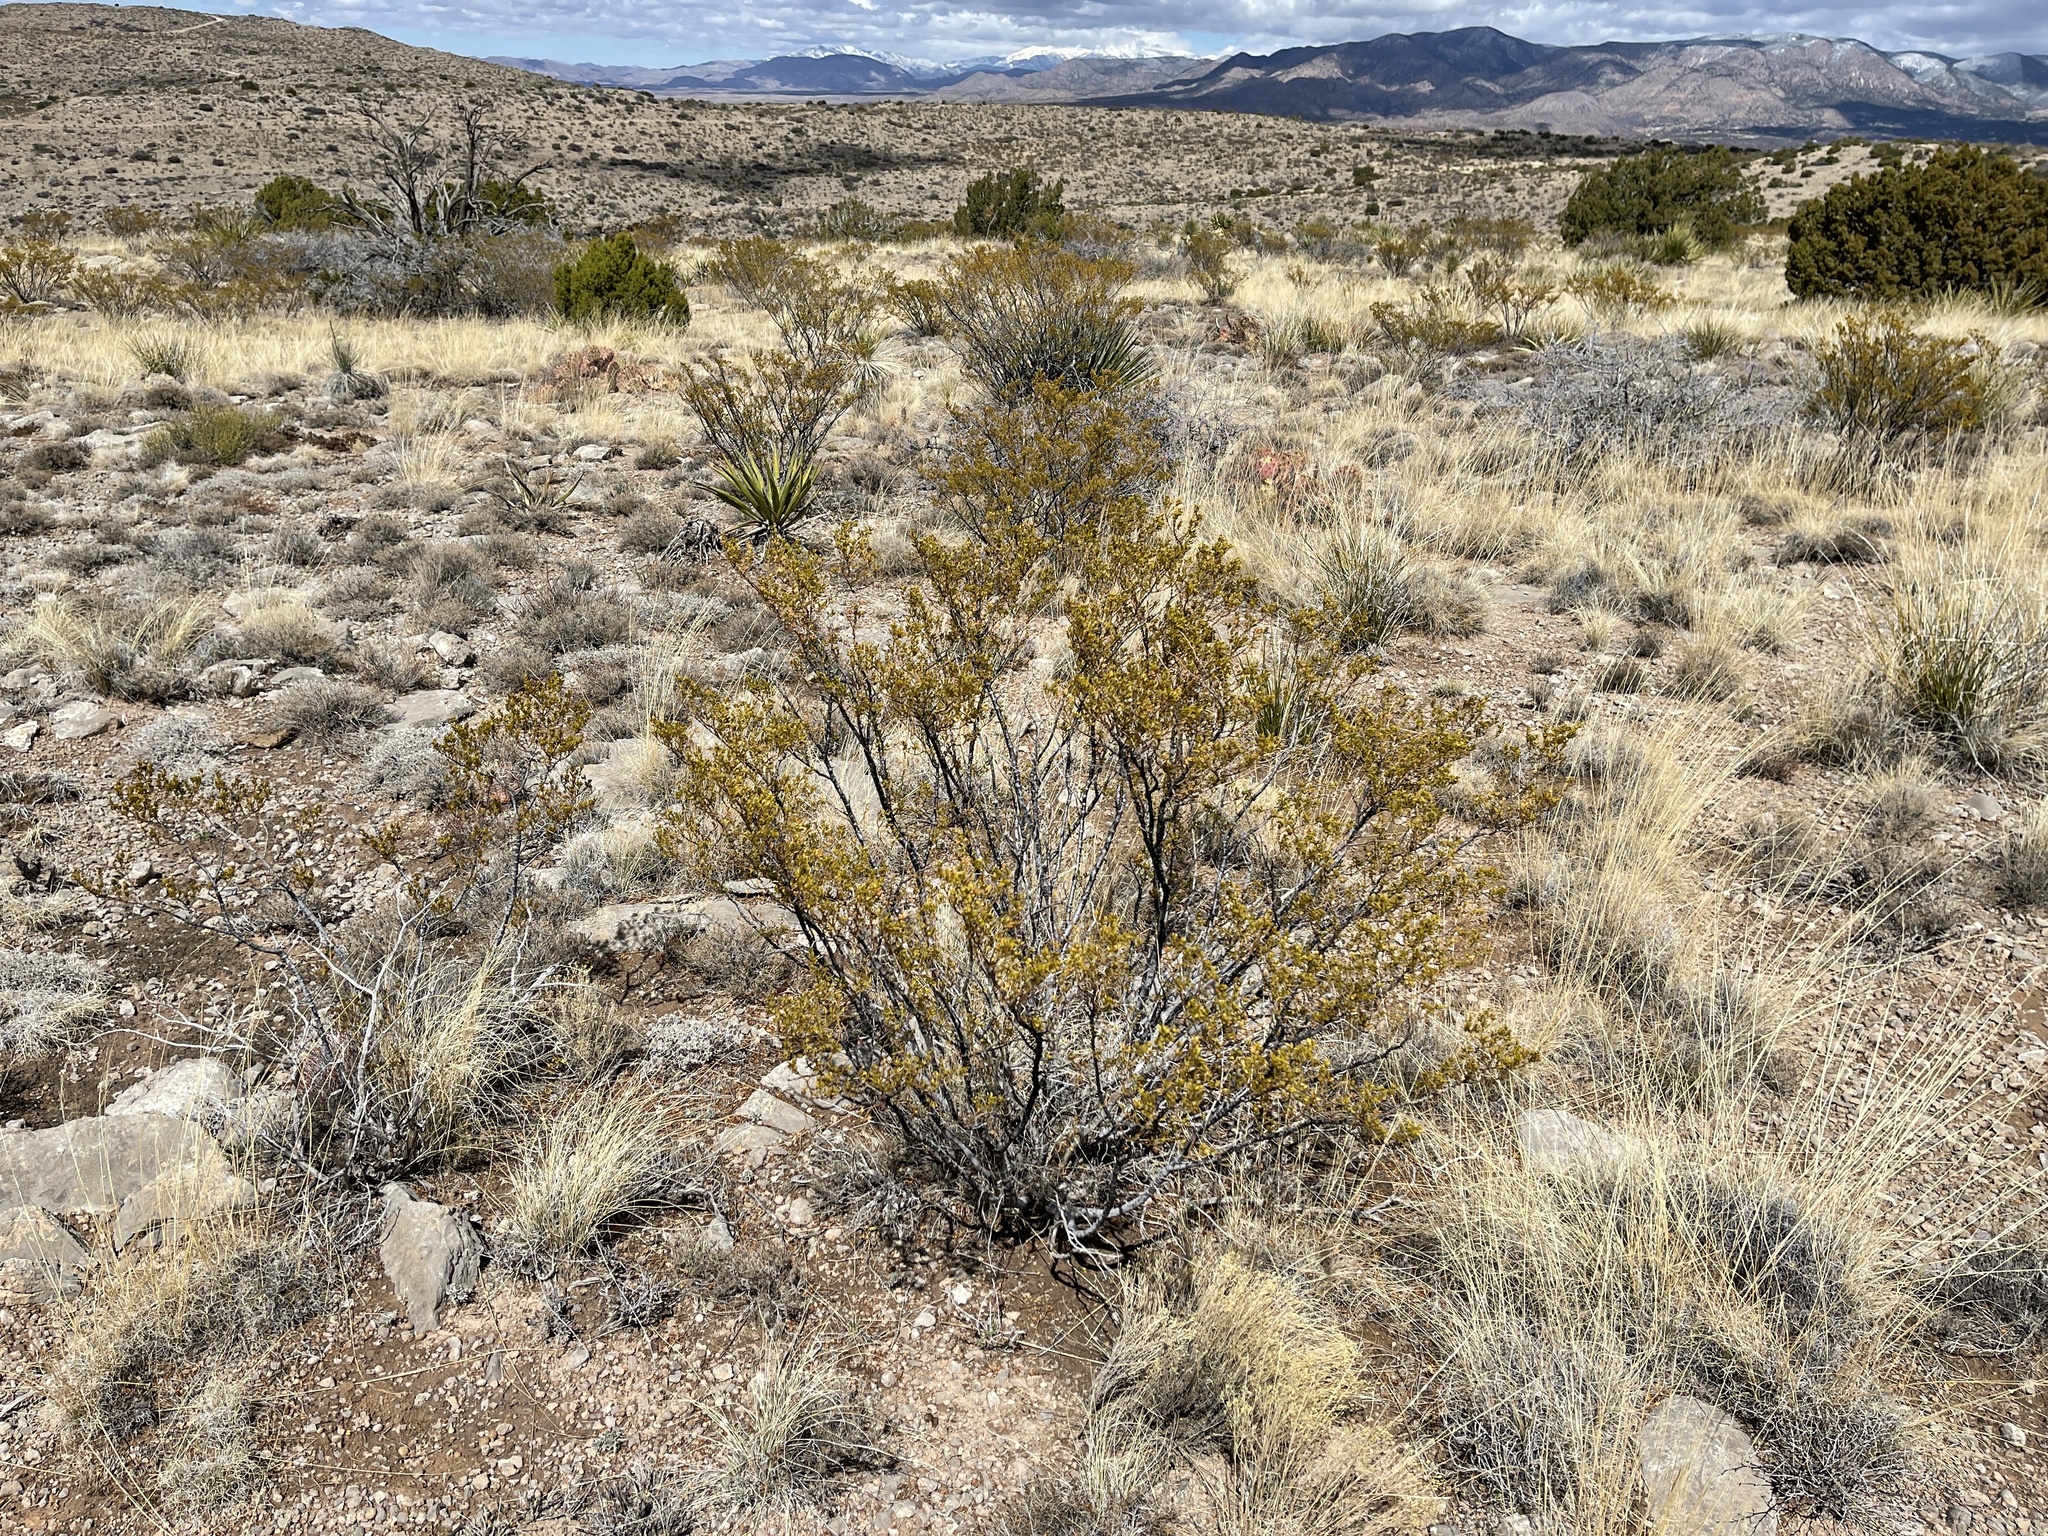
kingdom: Plantae
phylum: Tracheophyta
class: Magnoliopsida
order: Zygophyllales
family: Zygophyllaceae
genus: Larrea
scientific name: Larrea tridentata
